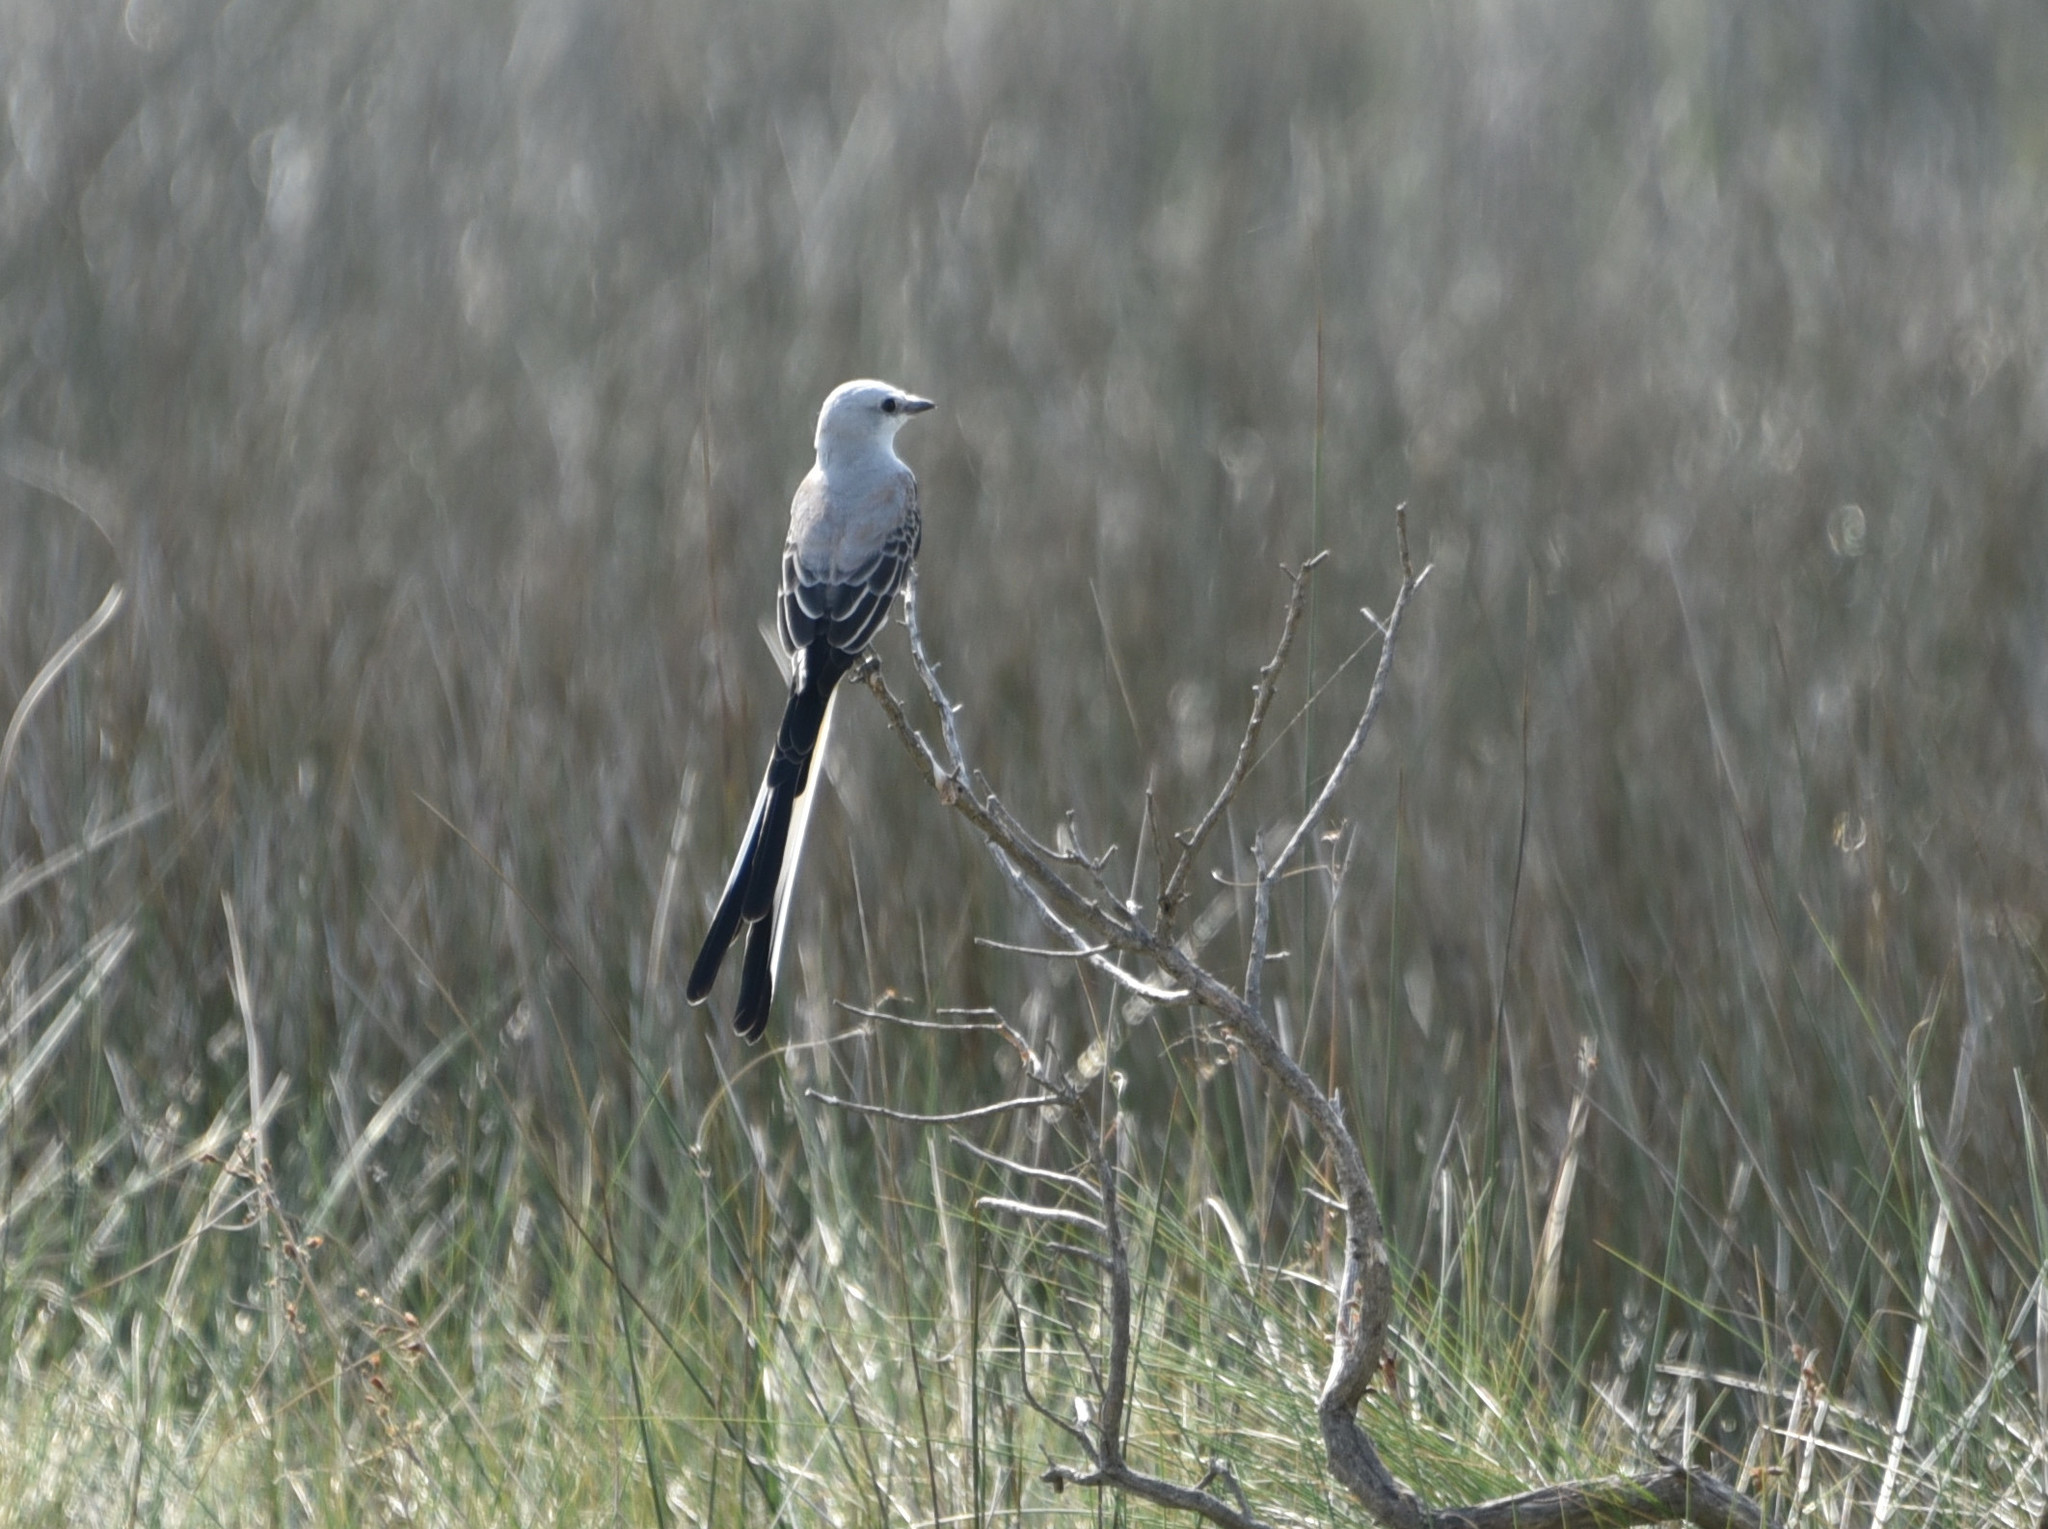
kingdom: Animalia
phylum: Chordata
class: Aves
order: Passeriformes
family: Tyrannidae
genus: Tyrannus
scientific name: Tyrannus forficatus
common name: Scissor-tailed flycatcher
